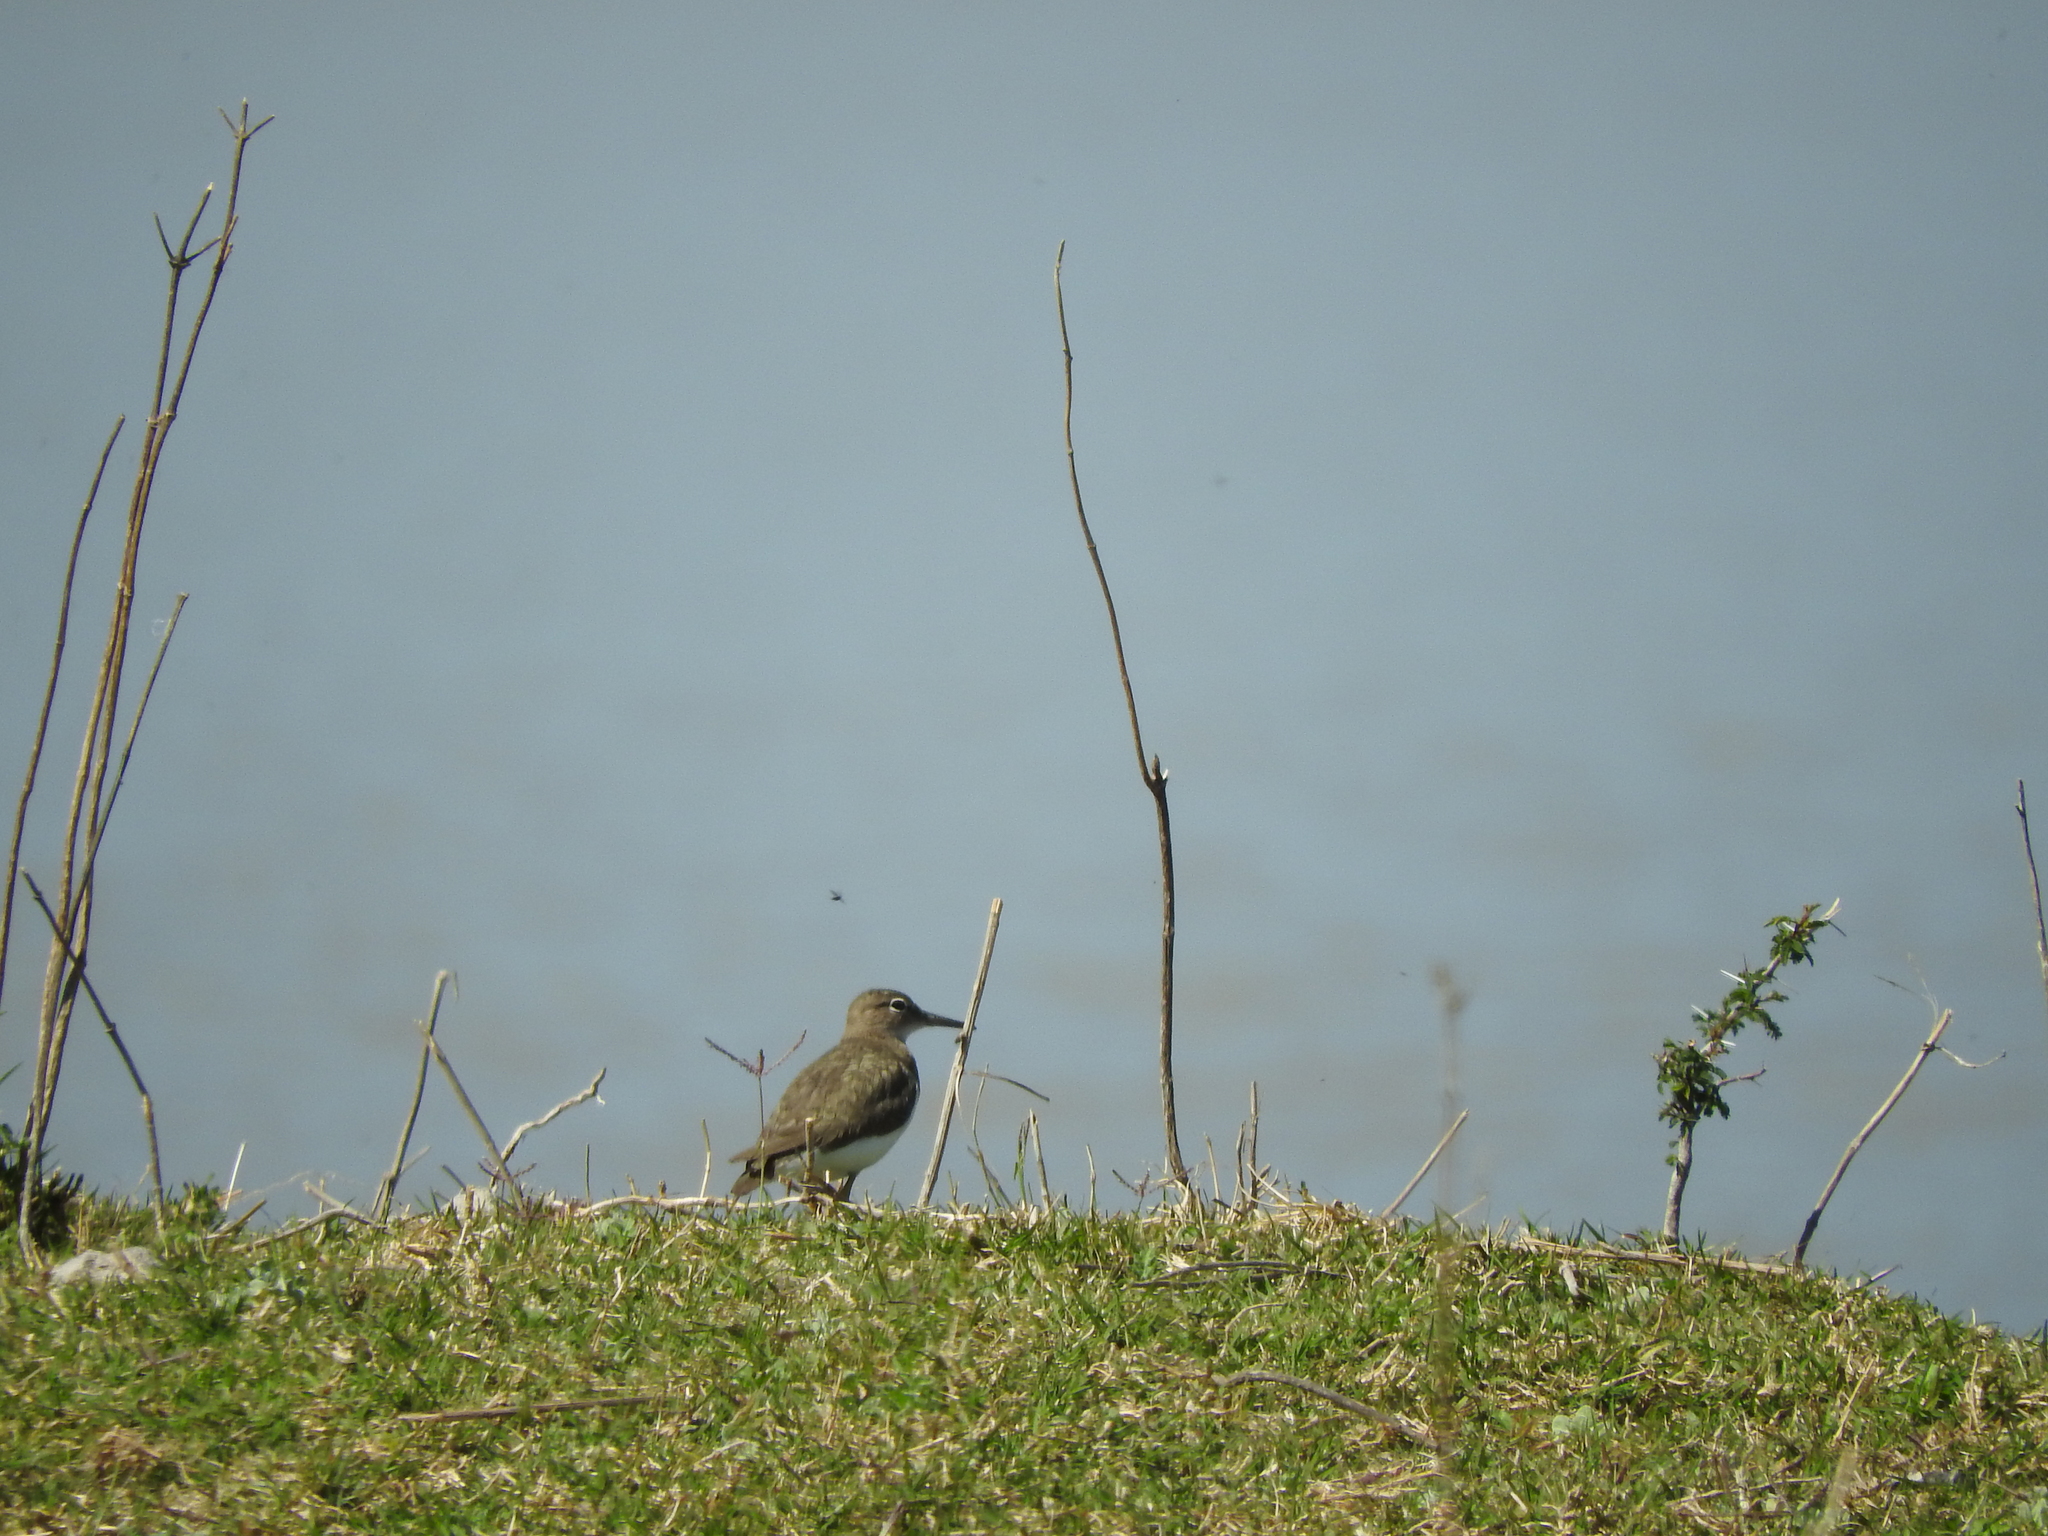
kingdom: Animalia
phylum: Chordata
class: Aves
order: Charadriiformes
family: Scolopacidae
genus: Actitis
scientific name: Actitis macularius
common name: Spotted sandpiper
